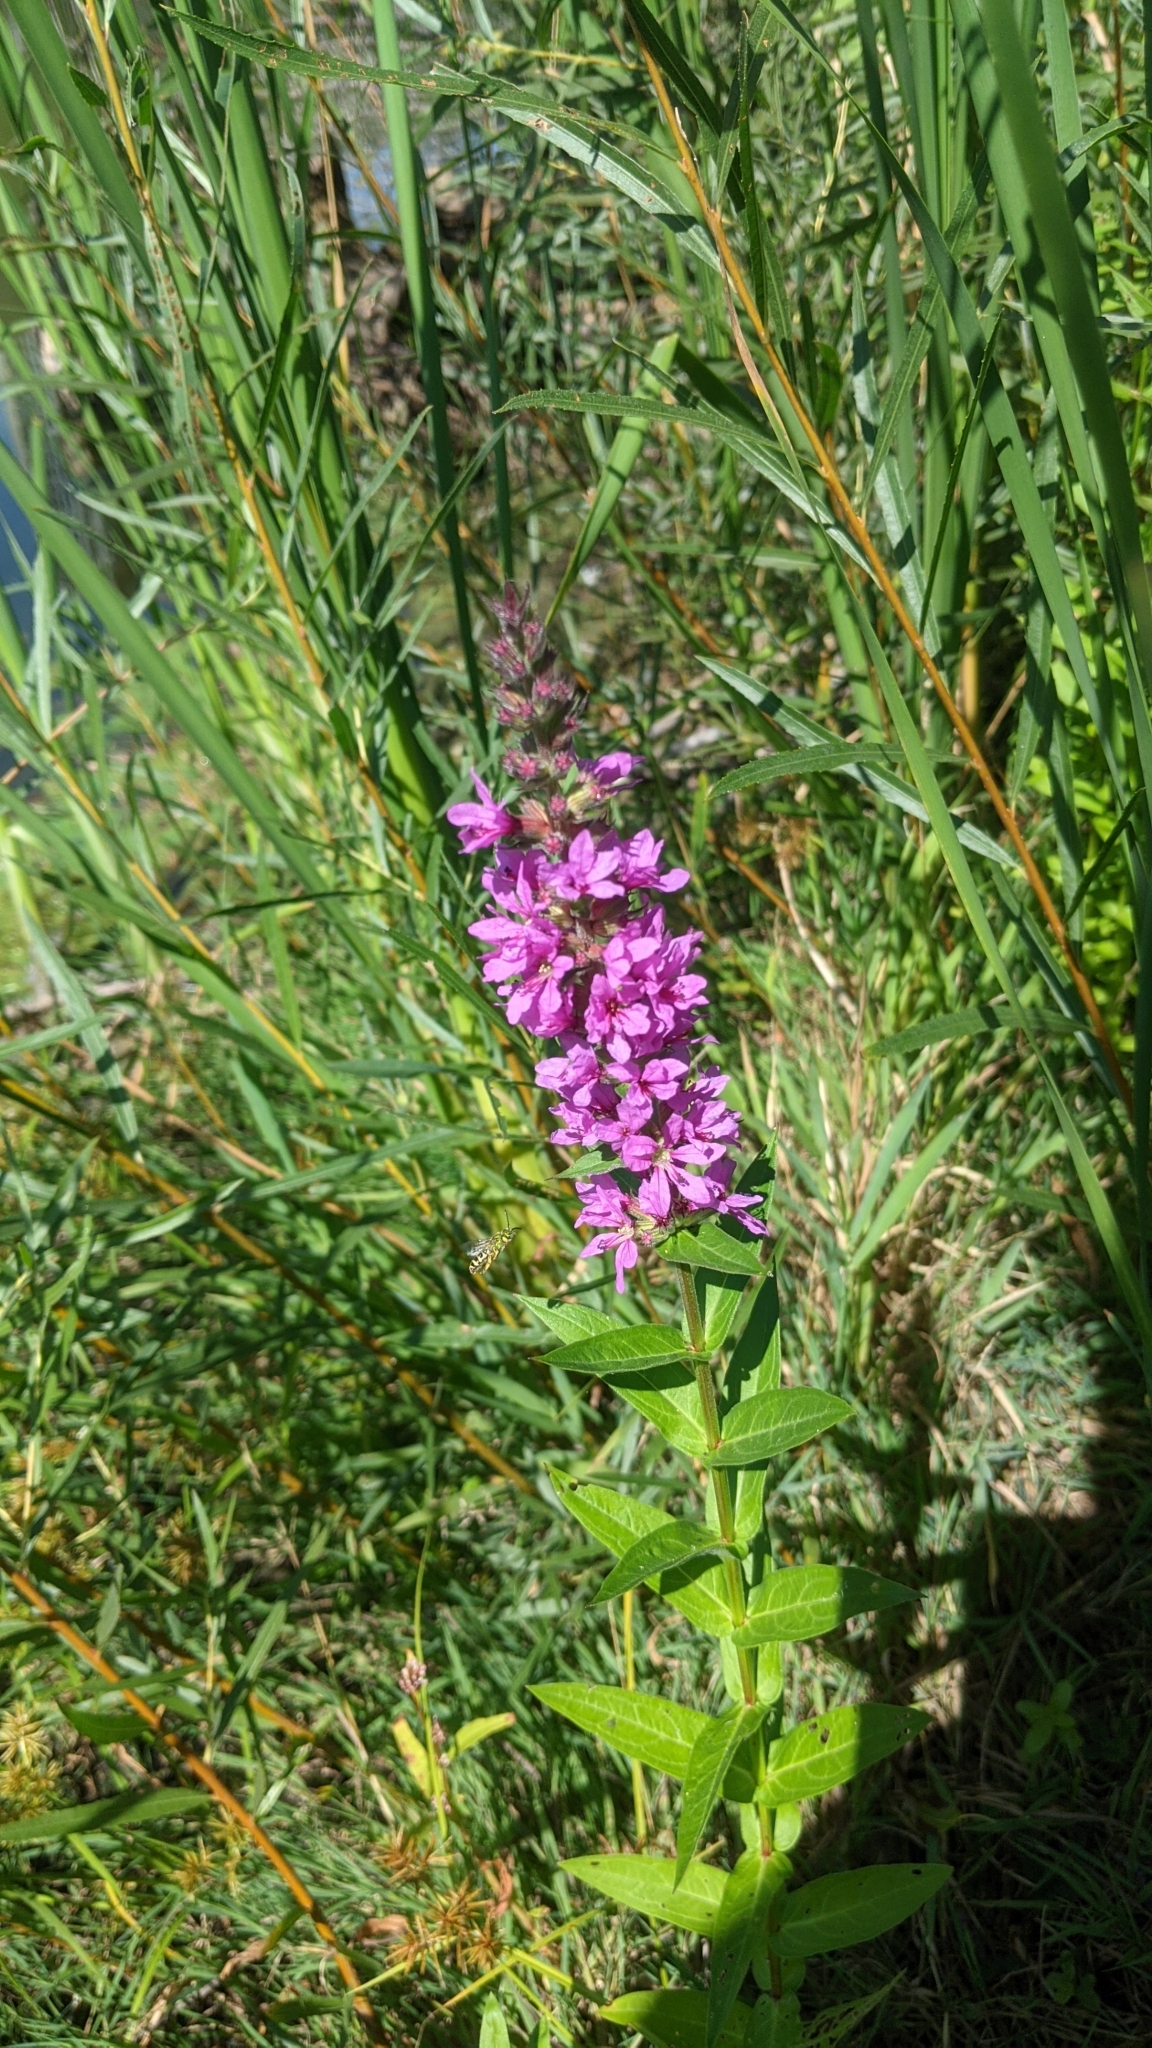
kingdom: Plantae
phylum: Tracheophyta
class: Magnoliopsida
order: Myrtales
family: Lythraceae
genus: Lythrum
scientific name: Lythrum salicaria
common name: Purple loosestrife
